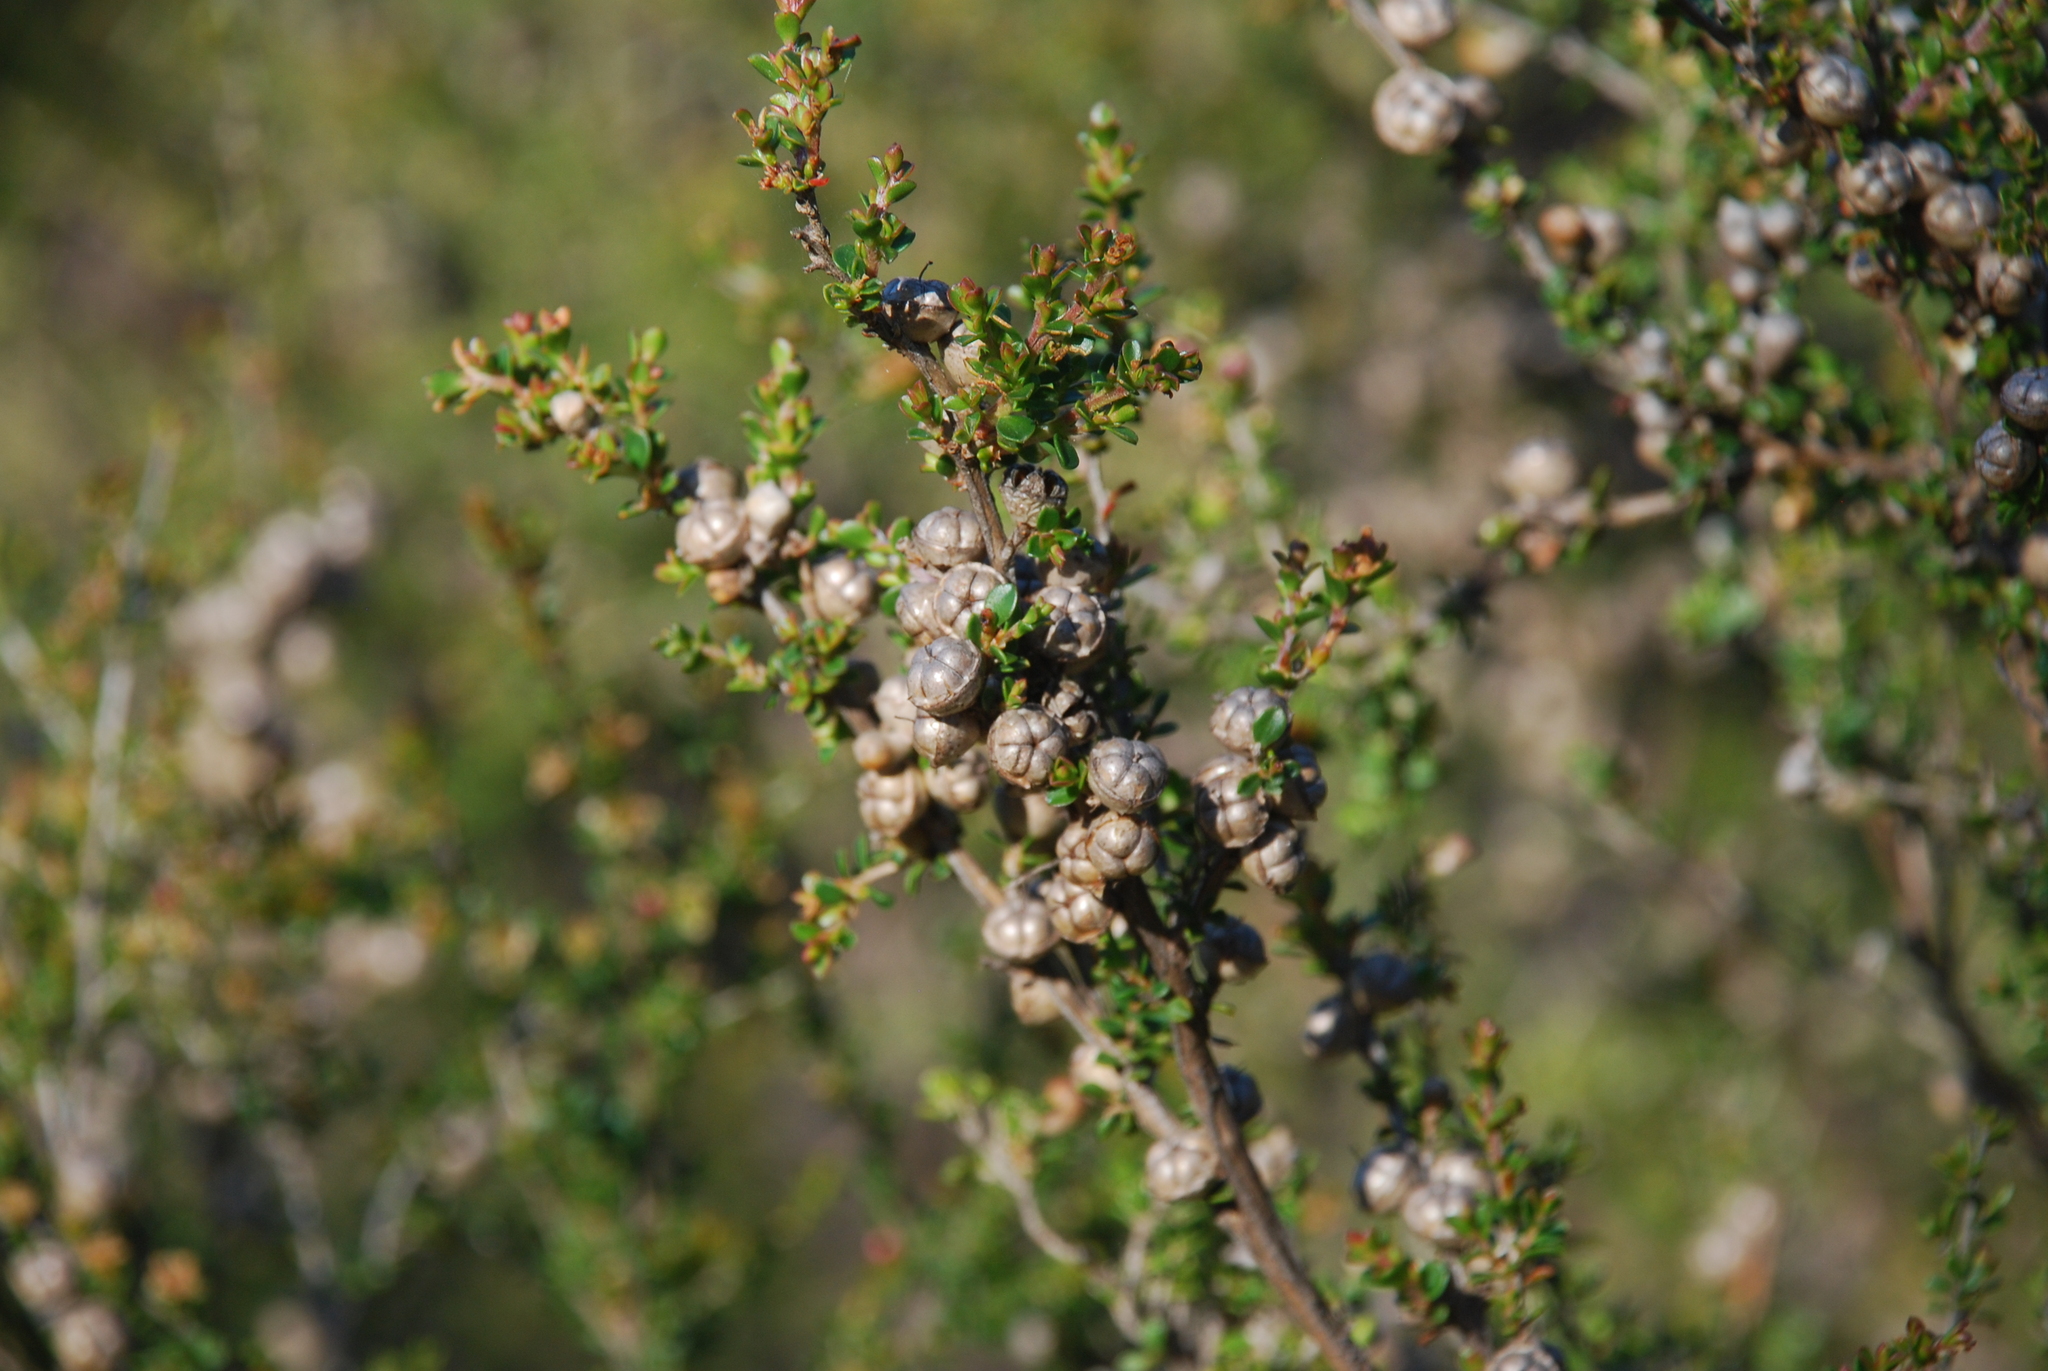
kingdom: Plantae
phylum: Tracheophyta
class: Magnoliopsida
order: Myrtales
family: Myrtaceae
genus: Leptospermum
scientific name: Leptospermum arachnoides
